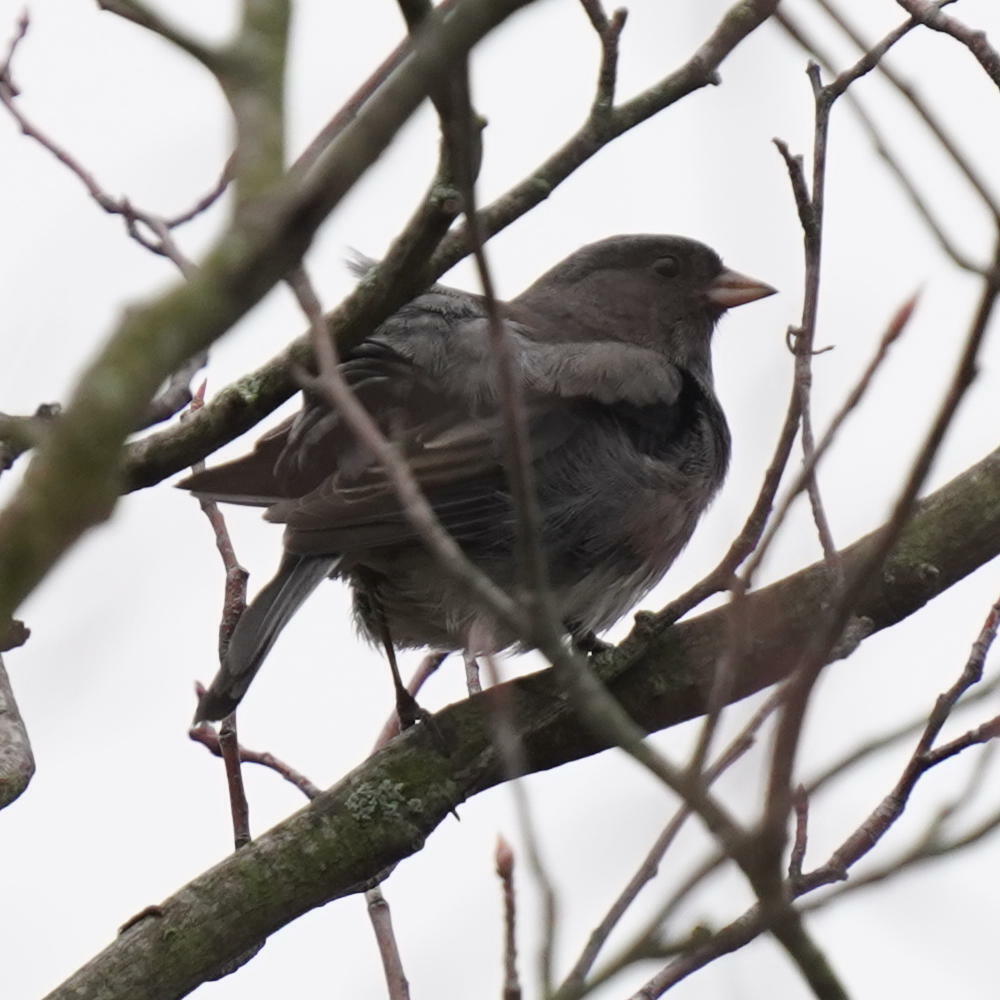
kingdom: Animalia
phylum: Chordata
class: Aves
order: Passeriformes
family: Passerellidae
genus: Junco
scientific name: Junco hyemalis
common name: Dark-eyed junco
